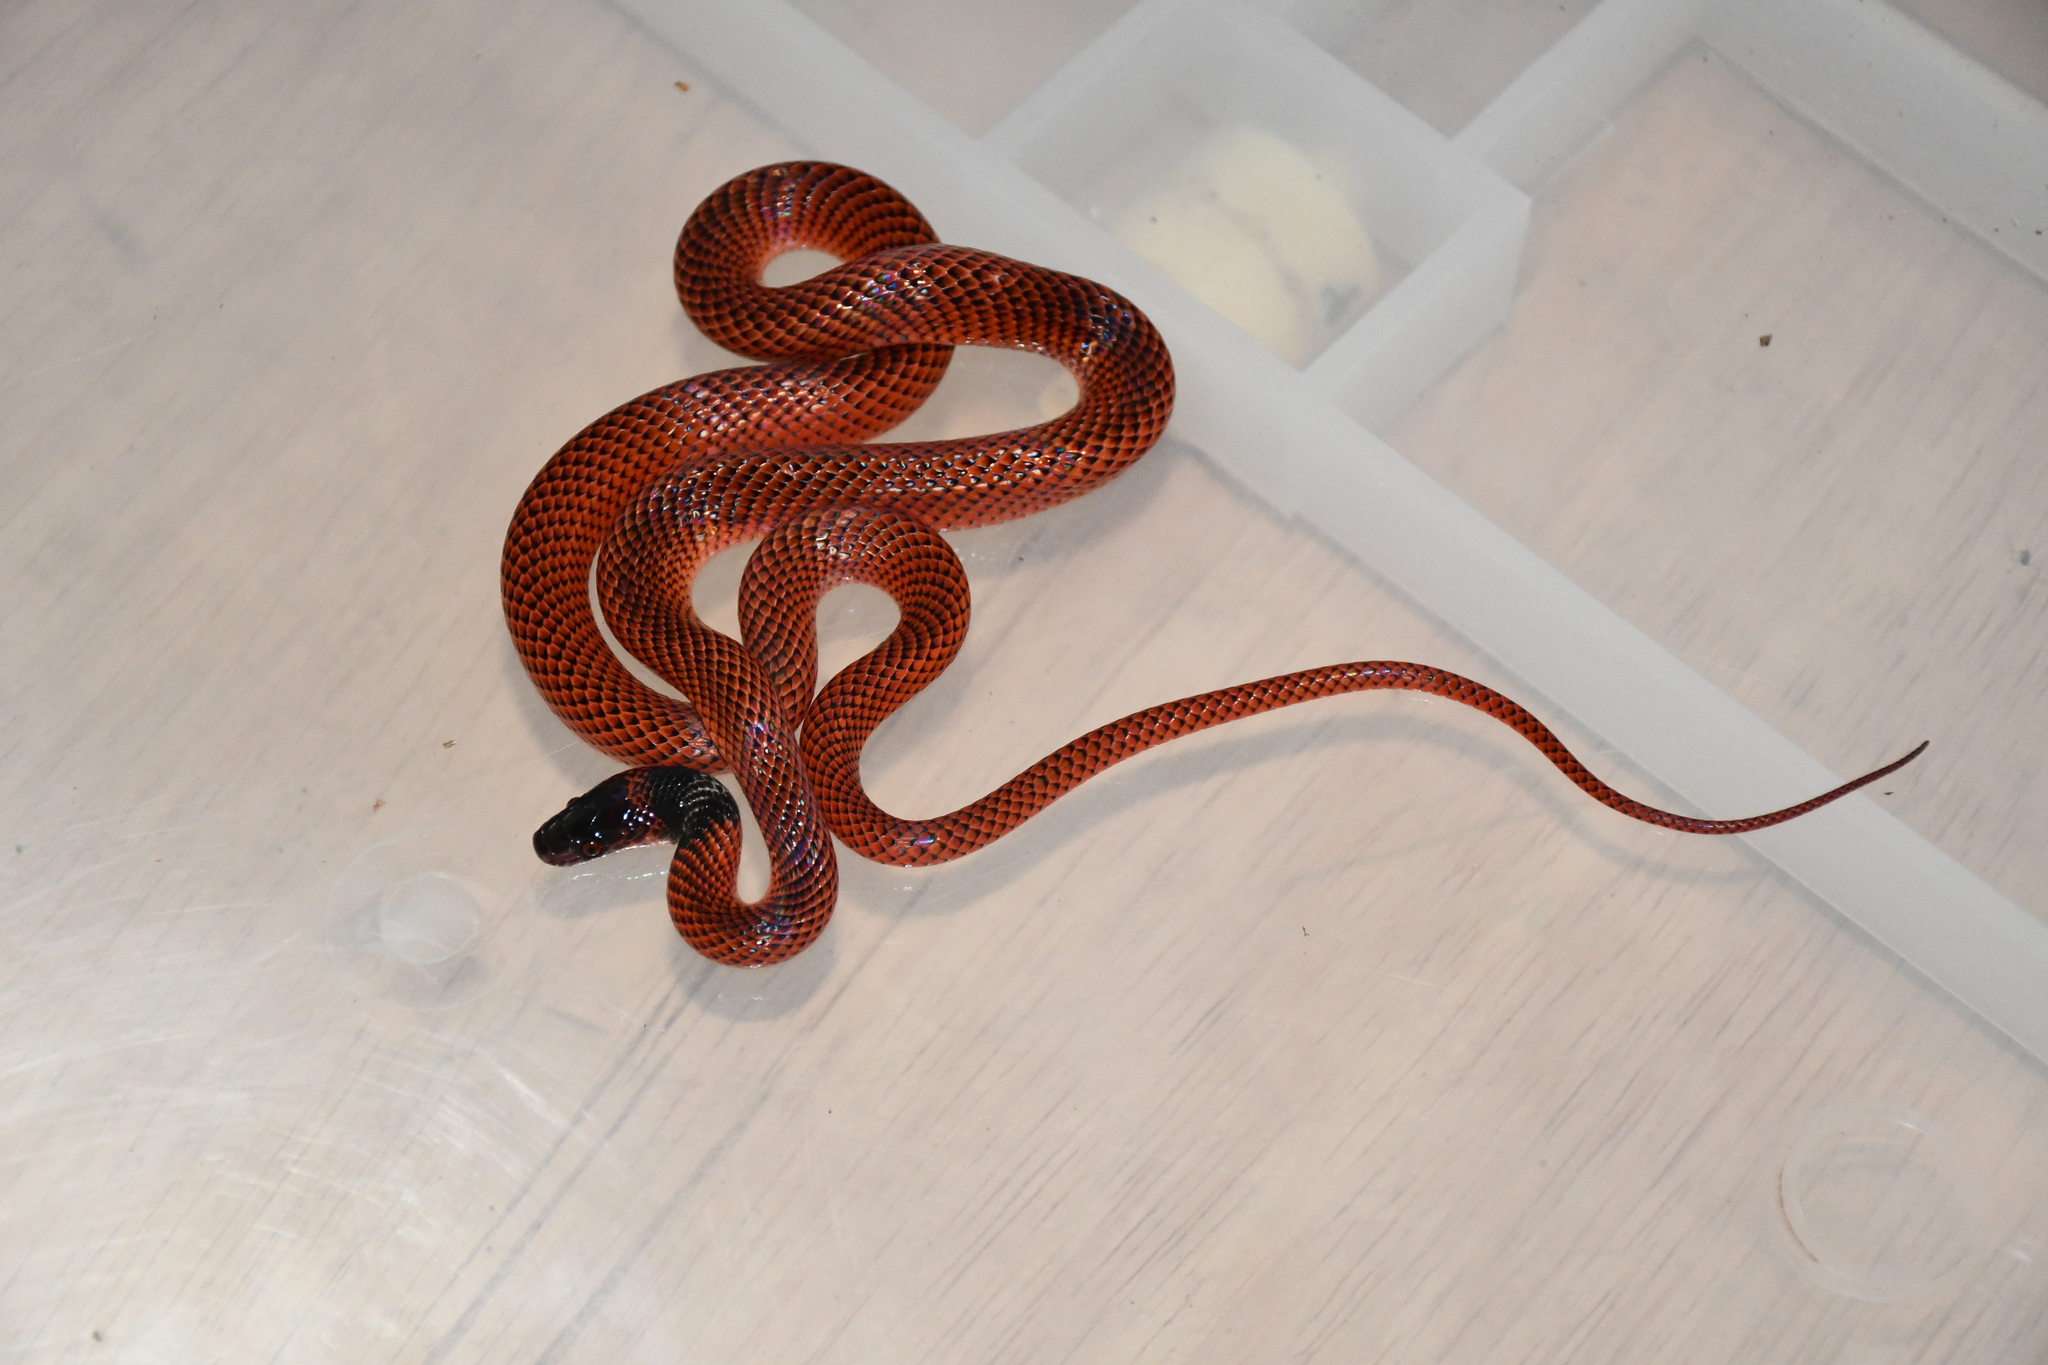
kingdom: Animalia
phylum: Chordata
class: Squamata
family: Colubridae
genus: Oxyrhopus
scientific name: Oxyrhopus melanogenys
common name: Tschudi's false coral snake
